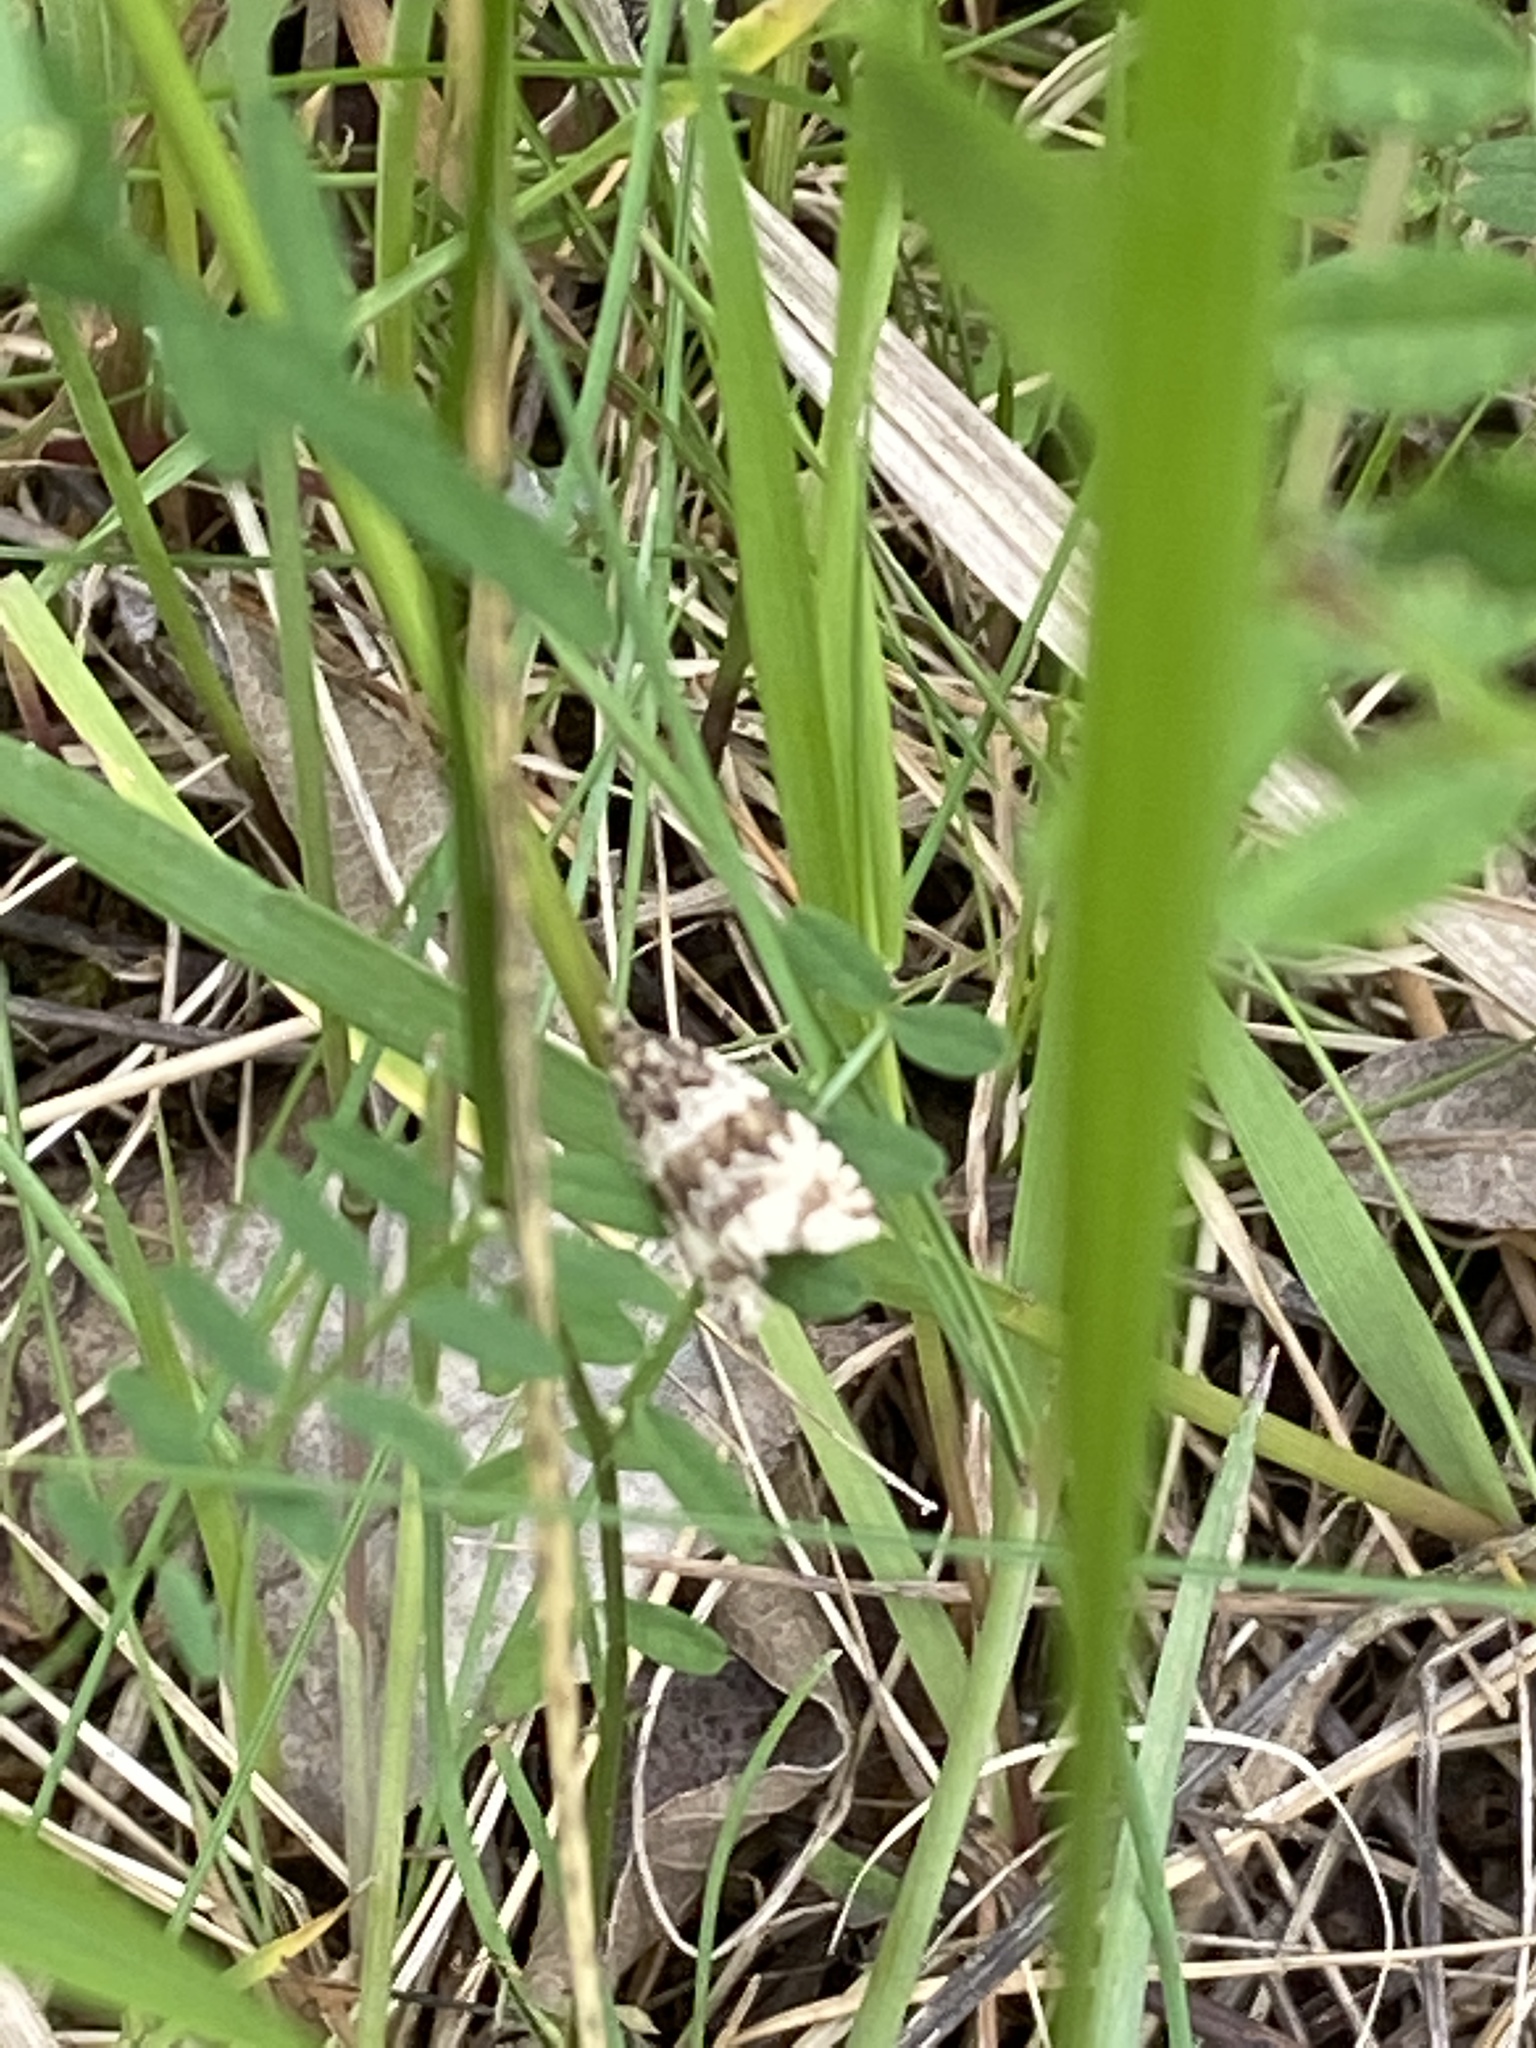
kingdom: Animalia
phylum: Arthropoda
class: Insecta
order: Lepidoptera
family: Tortricidae
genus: Orthotaenia
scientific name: Orthotaenia undulana
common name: Woodland marble
